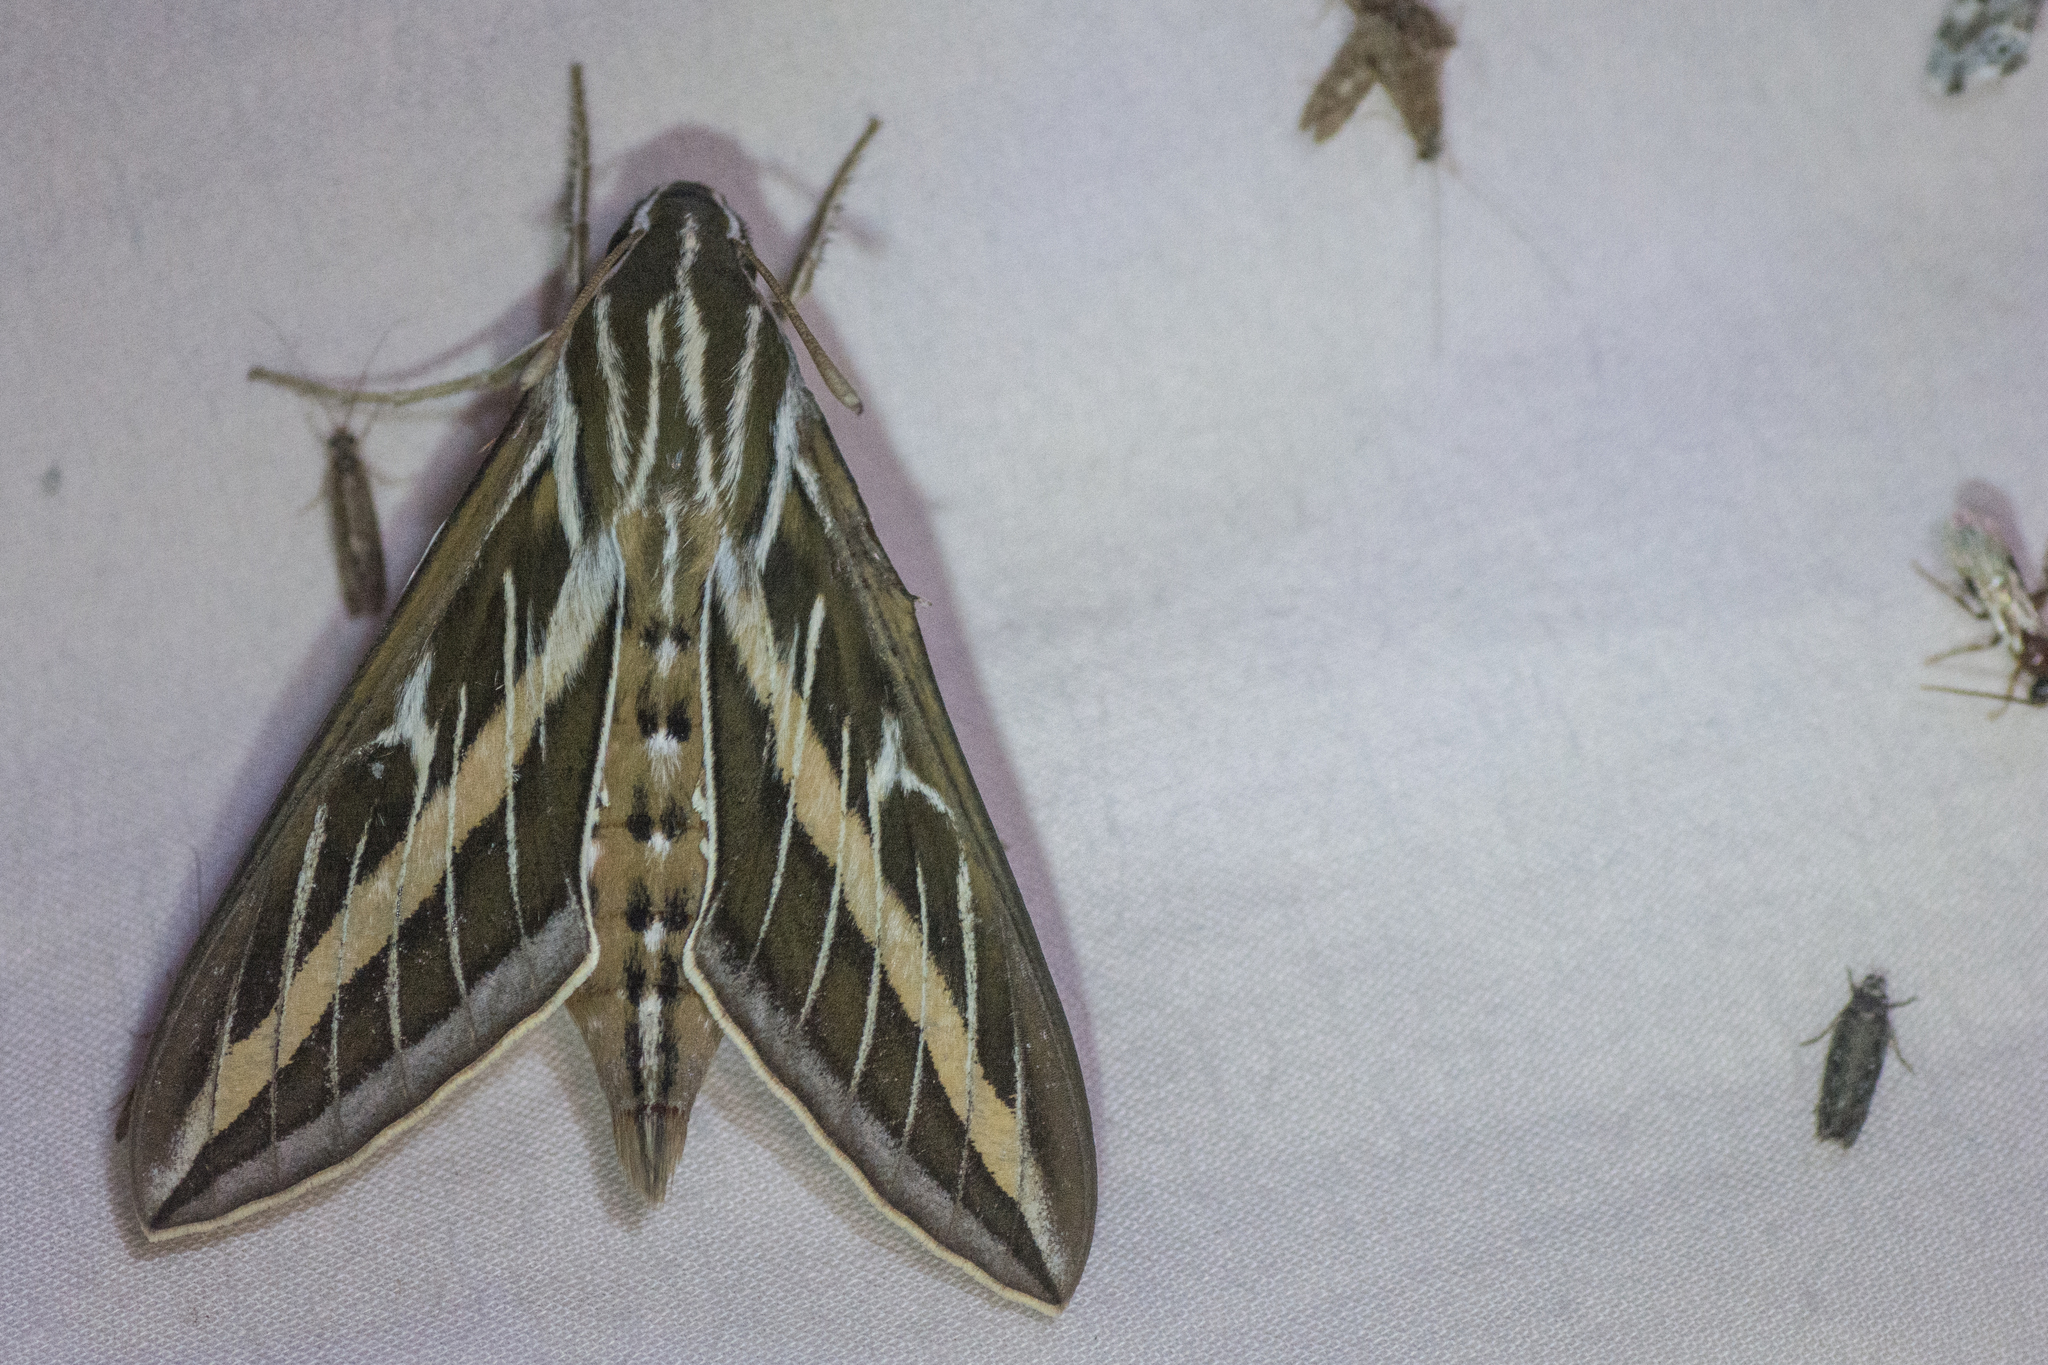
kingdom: Animalia
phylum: Arthropoda
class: Insecta
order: Lepidoptera
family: Sphingidae
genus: Hyles
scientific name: Hyles lineata
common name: White-lined sphinx
